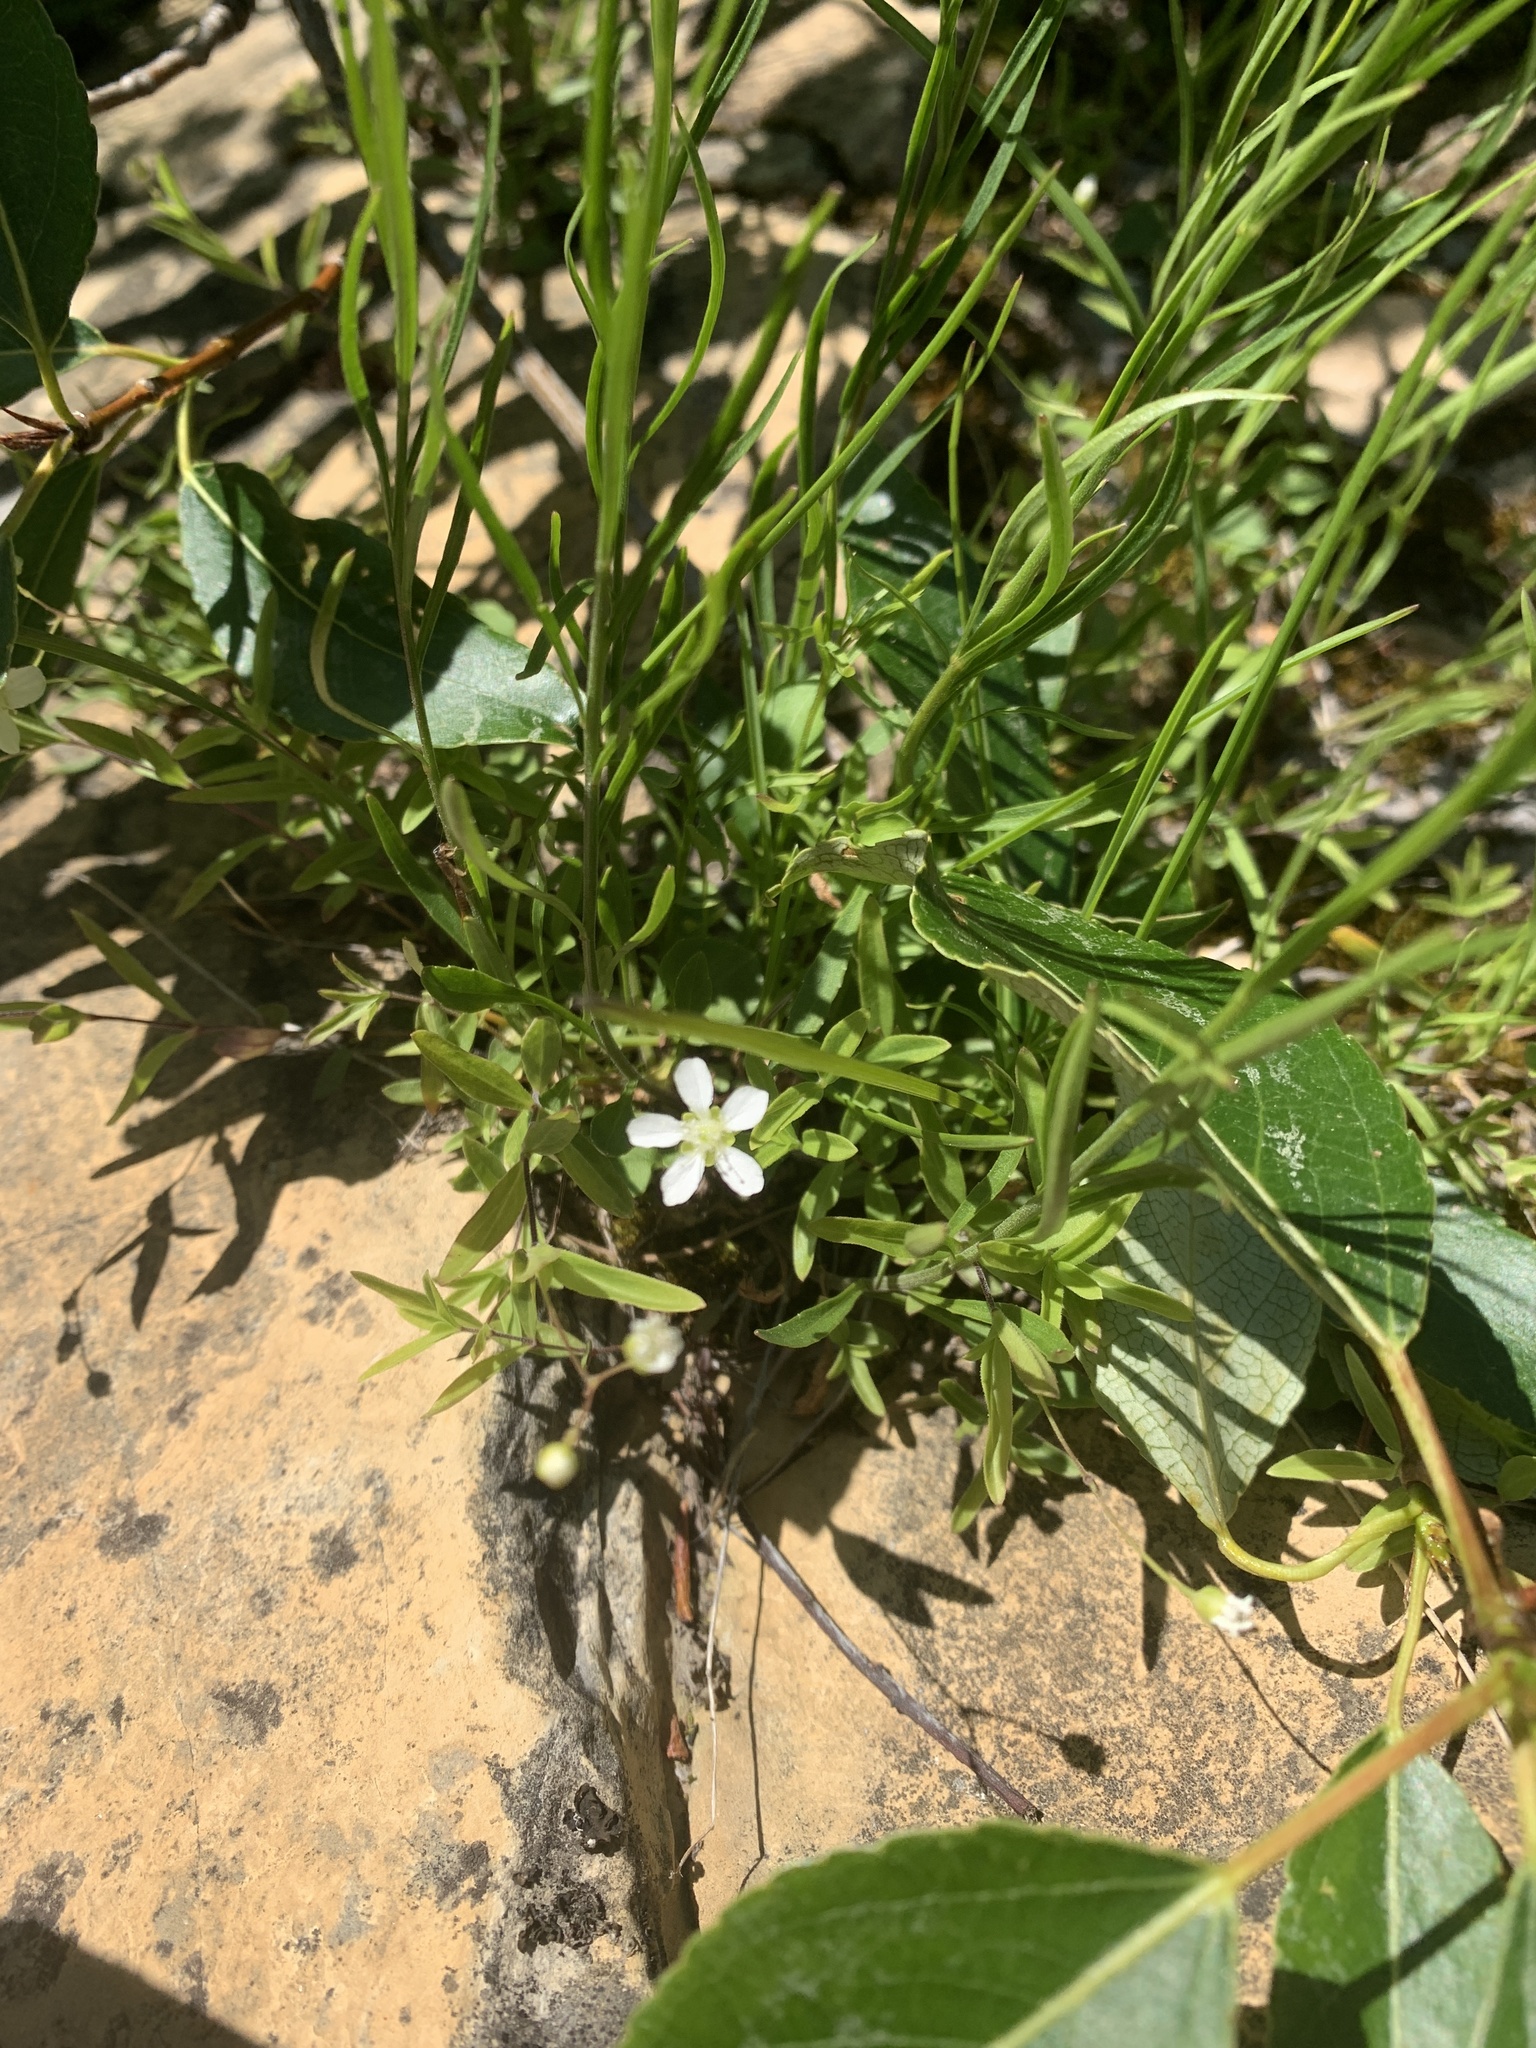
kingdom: Plantae
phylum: Tracheophyta
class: Magnoliopsida
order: Caryophyllales
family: Caryophyllaceae
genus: Moehringia
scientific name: Moehringia lateriflora
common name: Blunt-leaved sandwort
